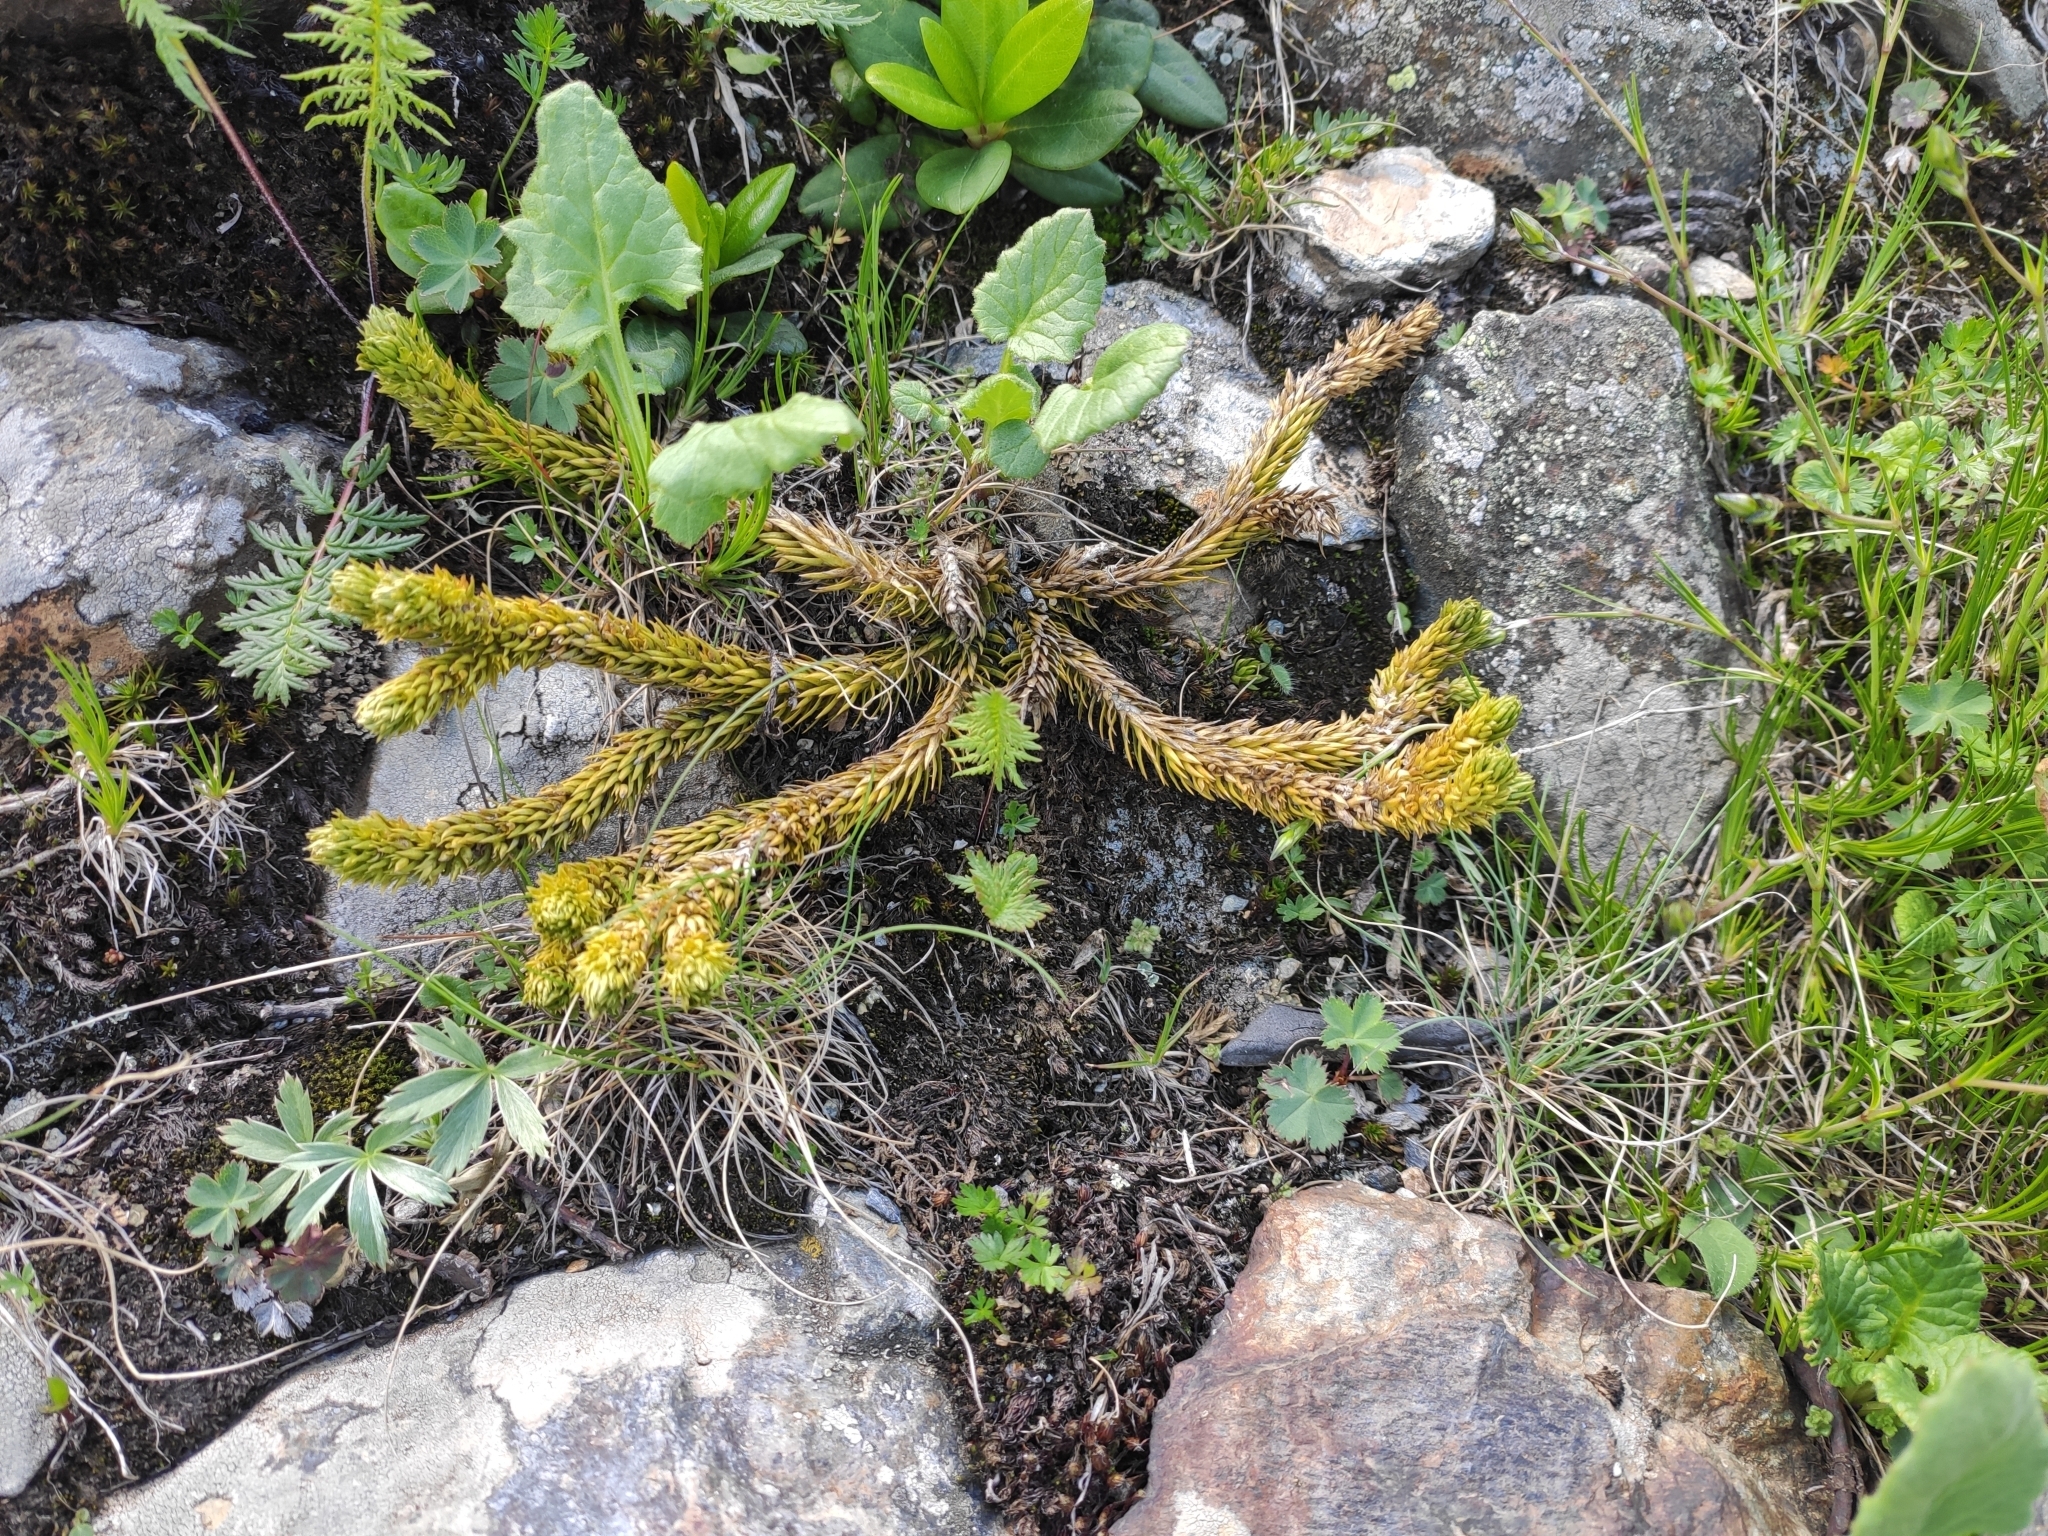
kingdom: Plantae
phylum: Tracheophyta
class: Lycopodiopsida
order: Lycopodiales
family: Lycopodiaceae
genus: Huperzia
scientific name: Huperzia selago
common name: Northern firmoss
